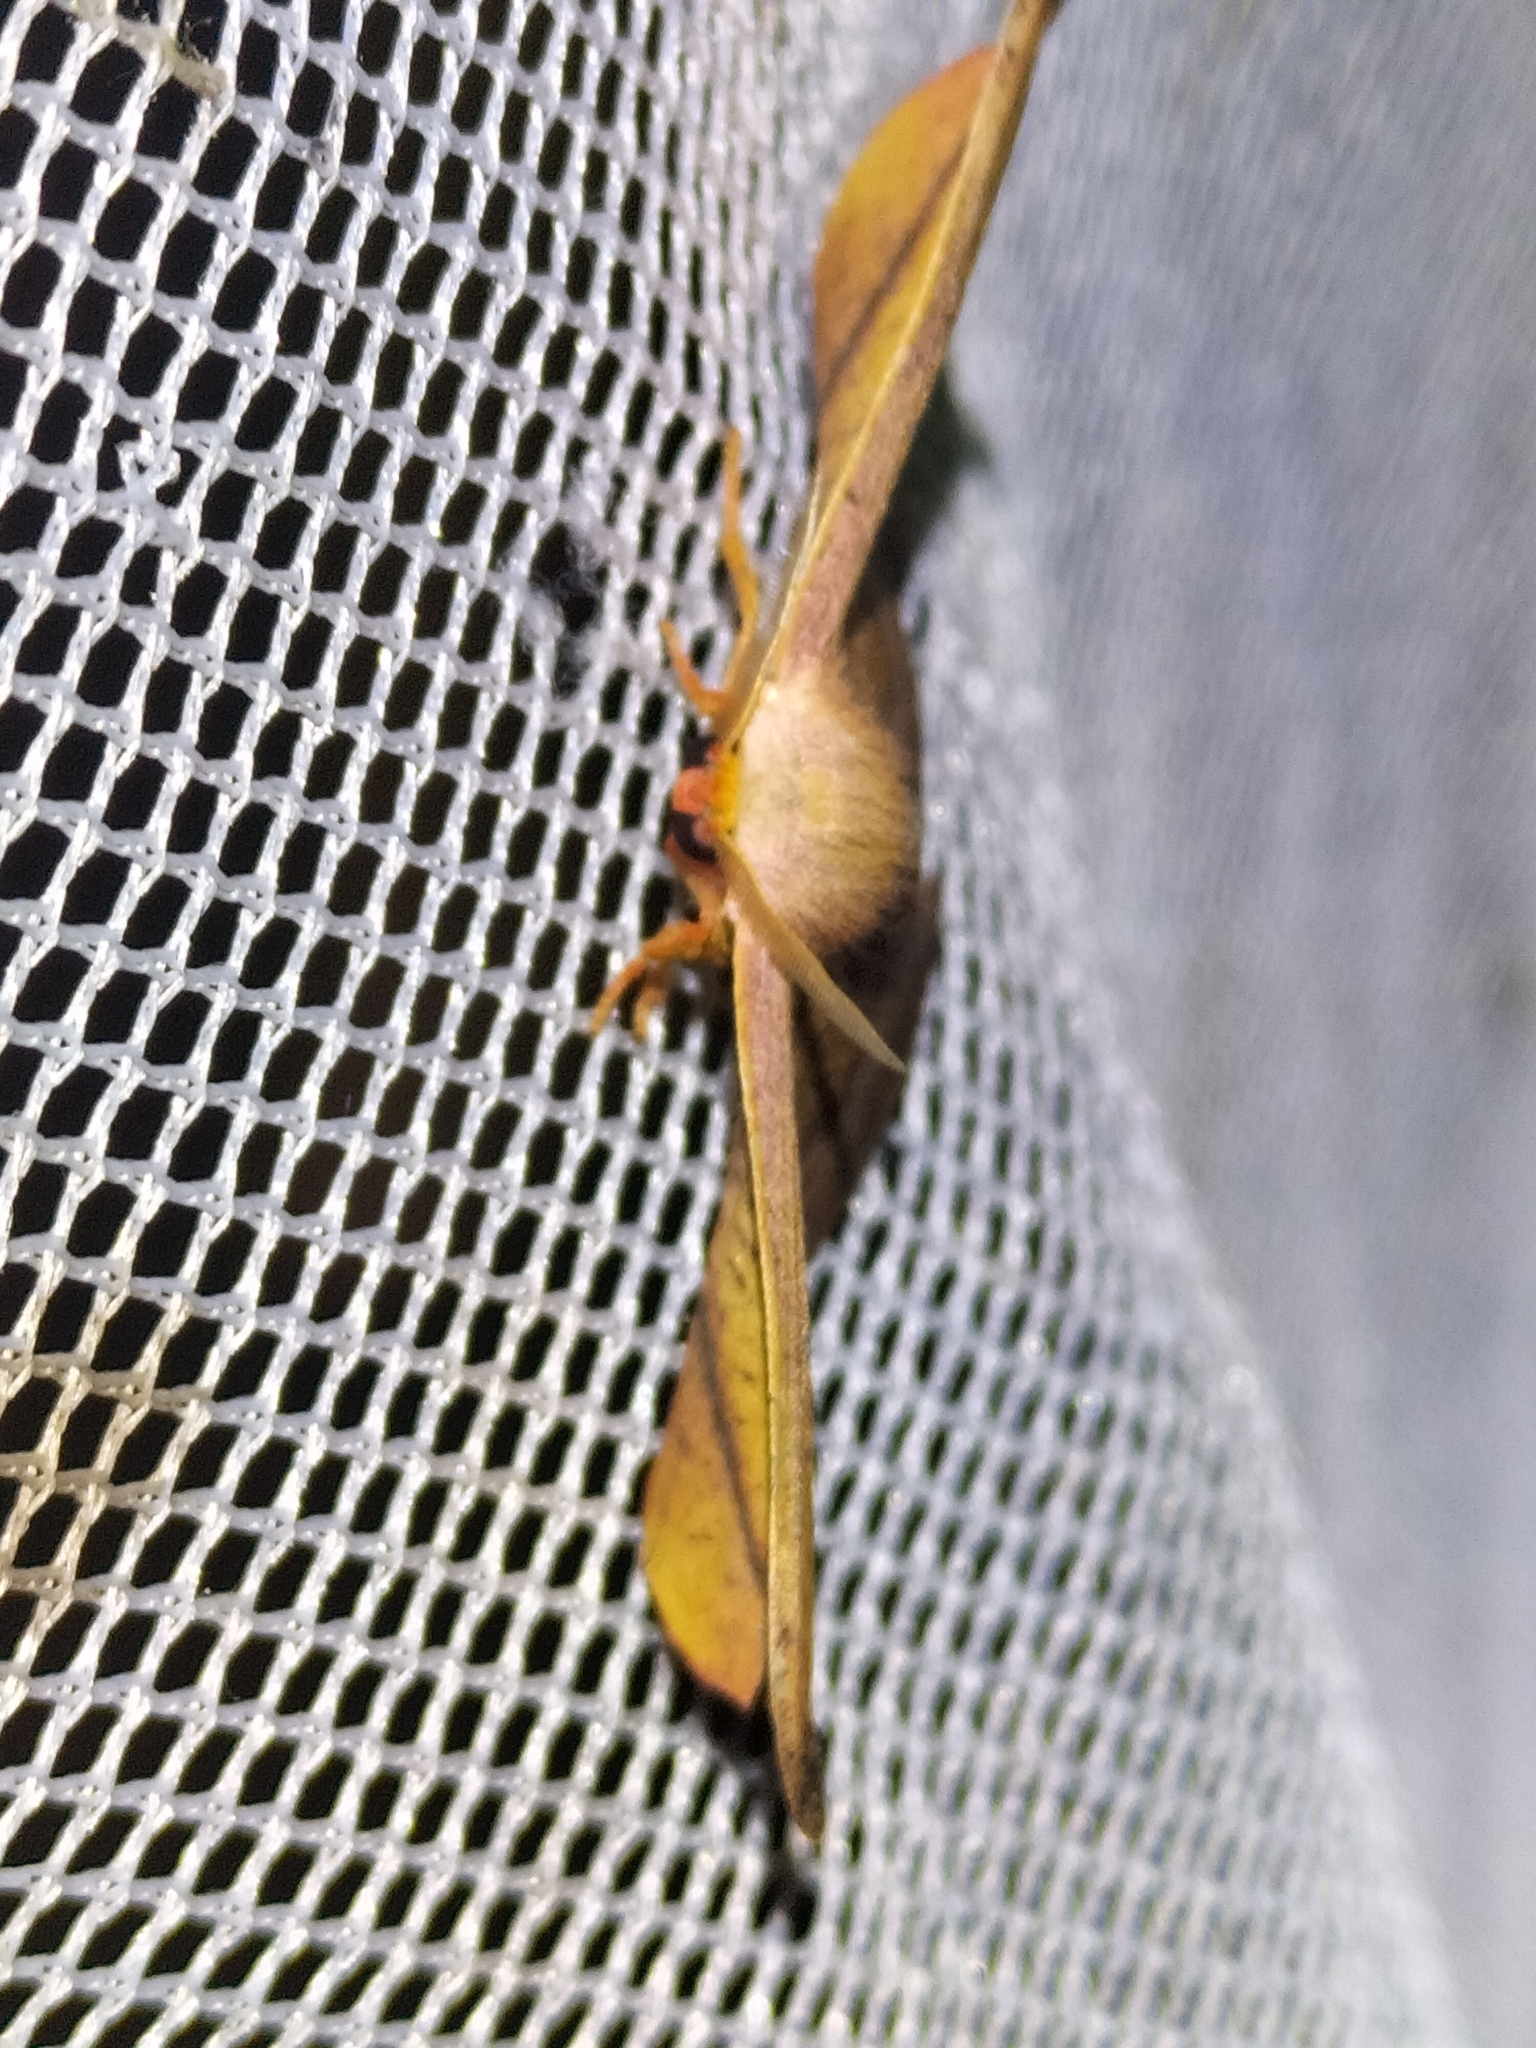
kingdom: Animalia
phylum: Arthropoda
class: Insecta
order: Lepidoptera
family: Drepanidae
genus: Oreta
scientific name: Oreta jaspidea
